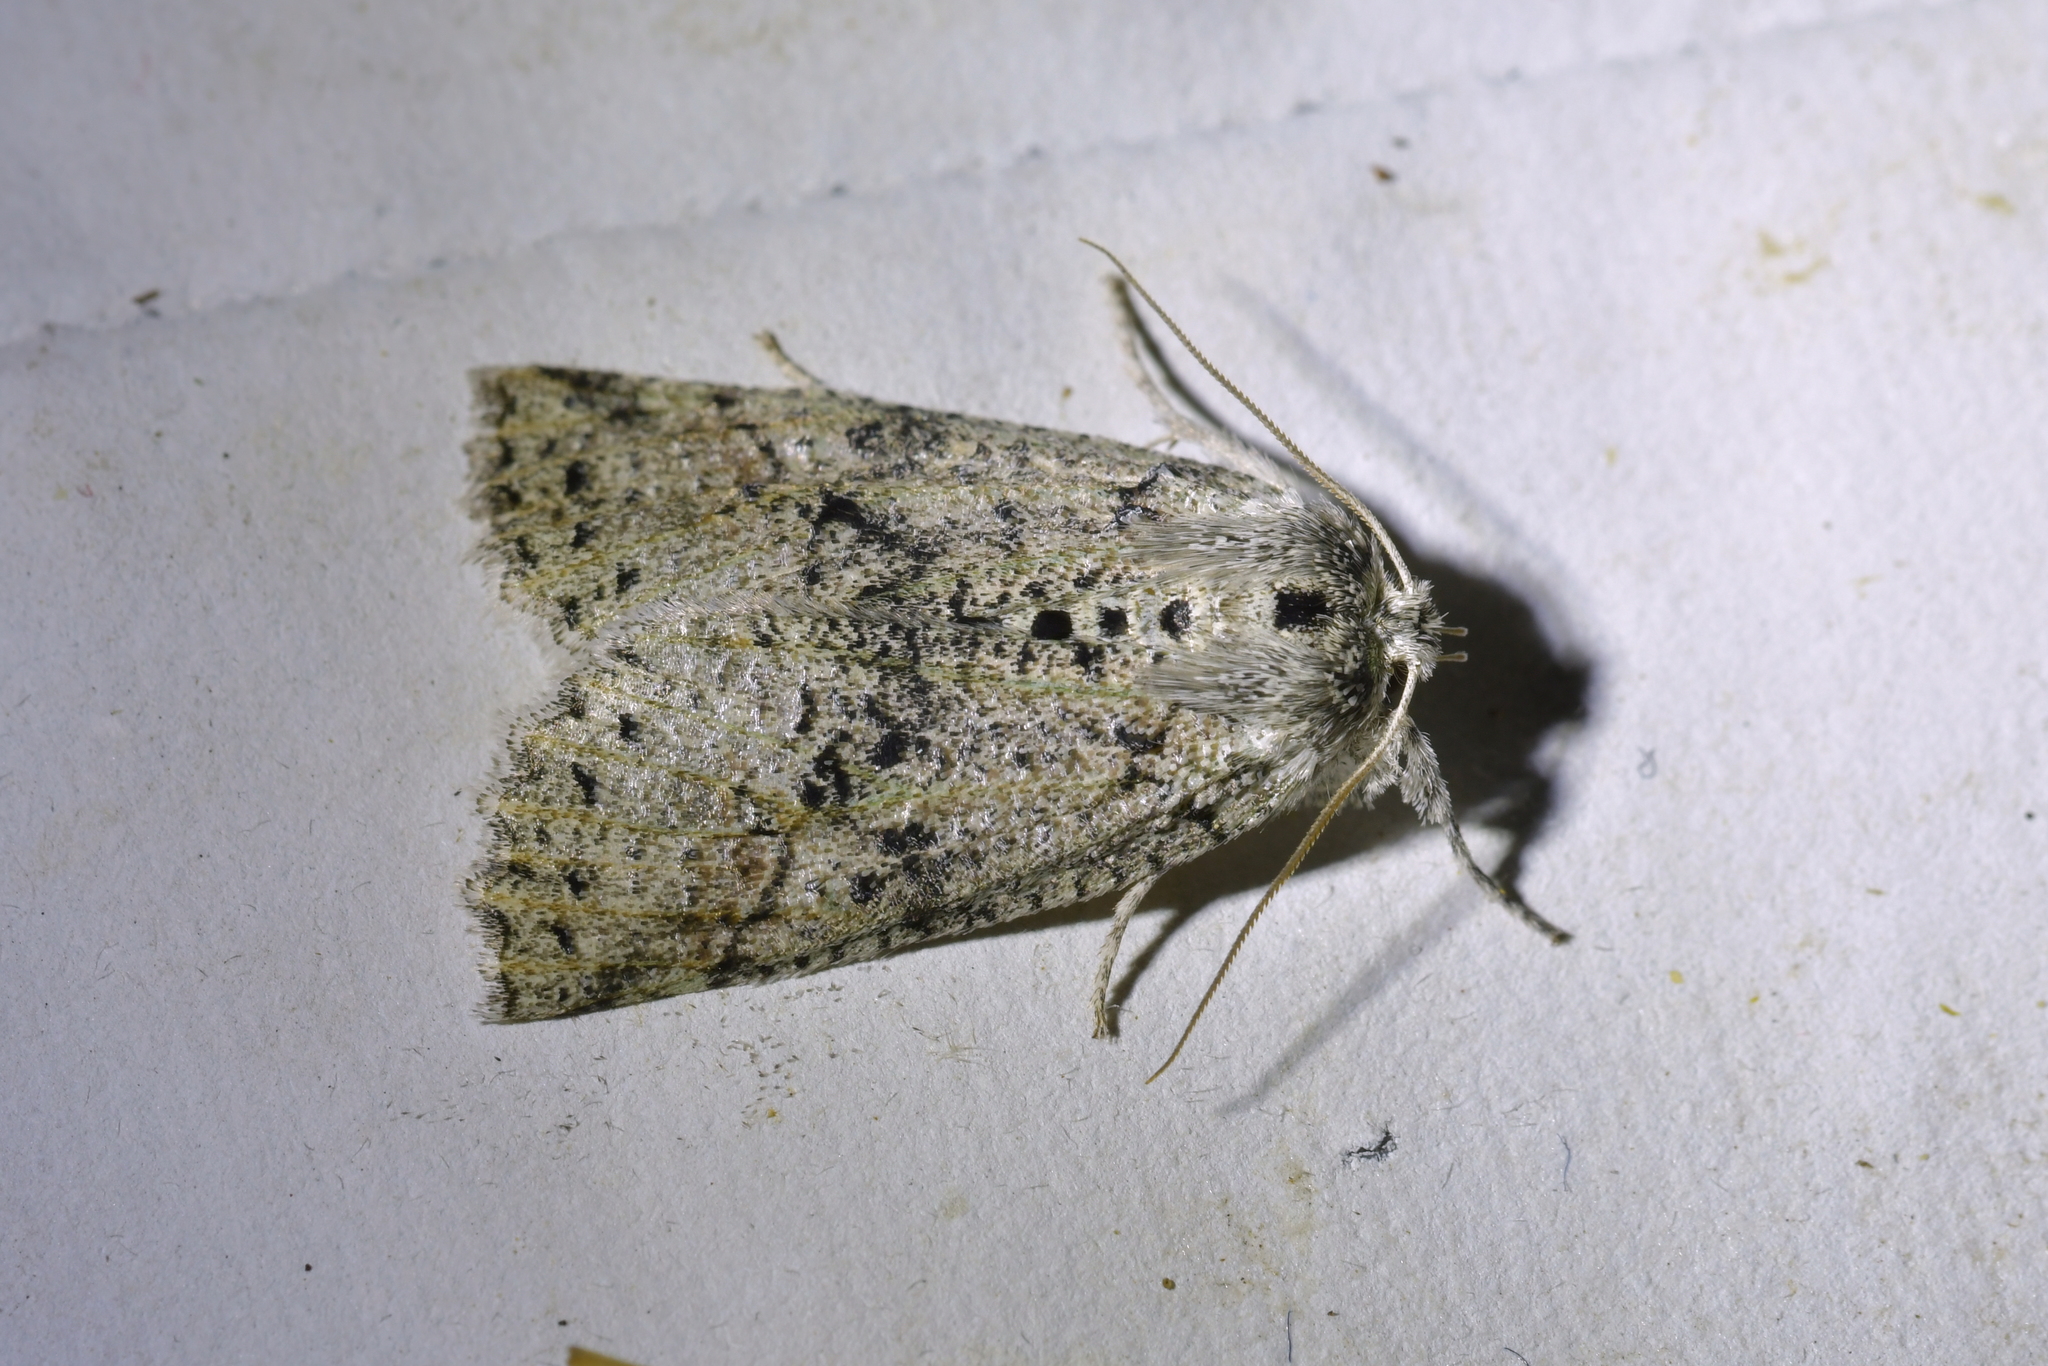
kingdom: Animalia
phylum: Arthropoda
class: Insecta
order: Lepidoptera
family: Geometridae
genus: Declana
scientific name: Declana floccosa
